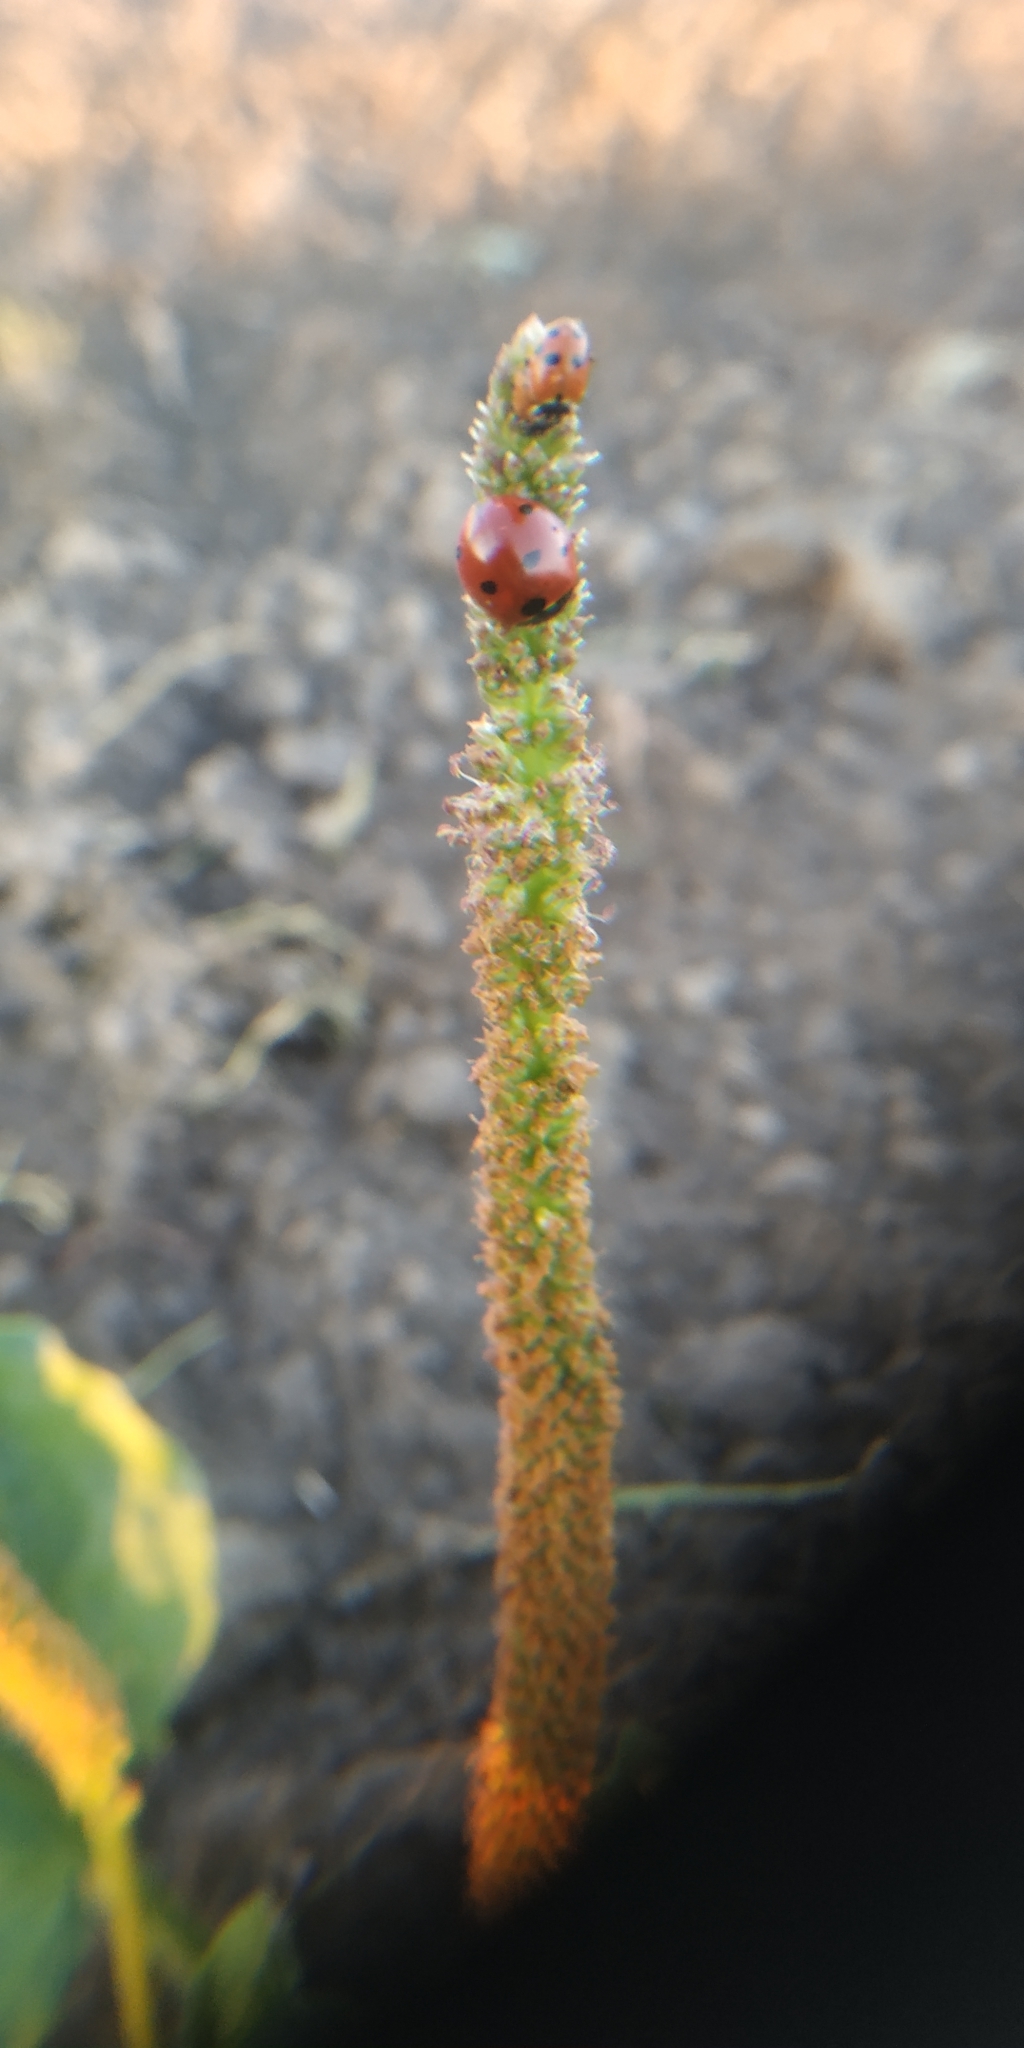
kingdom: Animalia
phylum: Arthropoda
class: Insecta
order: Coleoptera
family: Coccinellidae
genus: Hippodamia
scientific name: Hippodamia variegata
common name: Ladybird beetle
